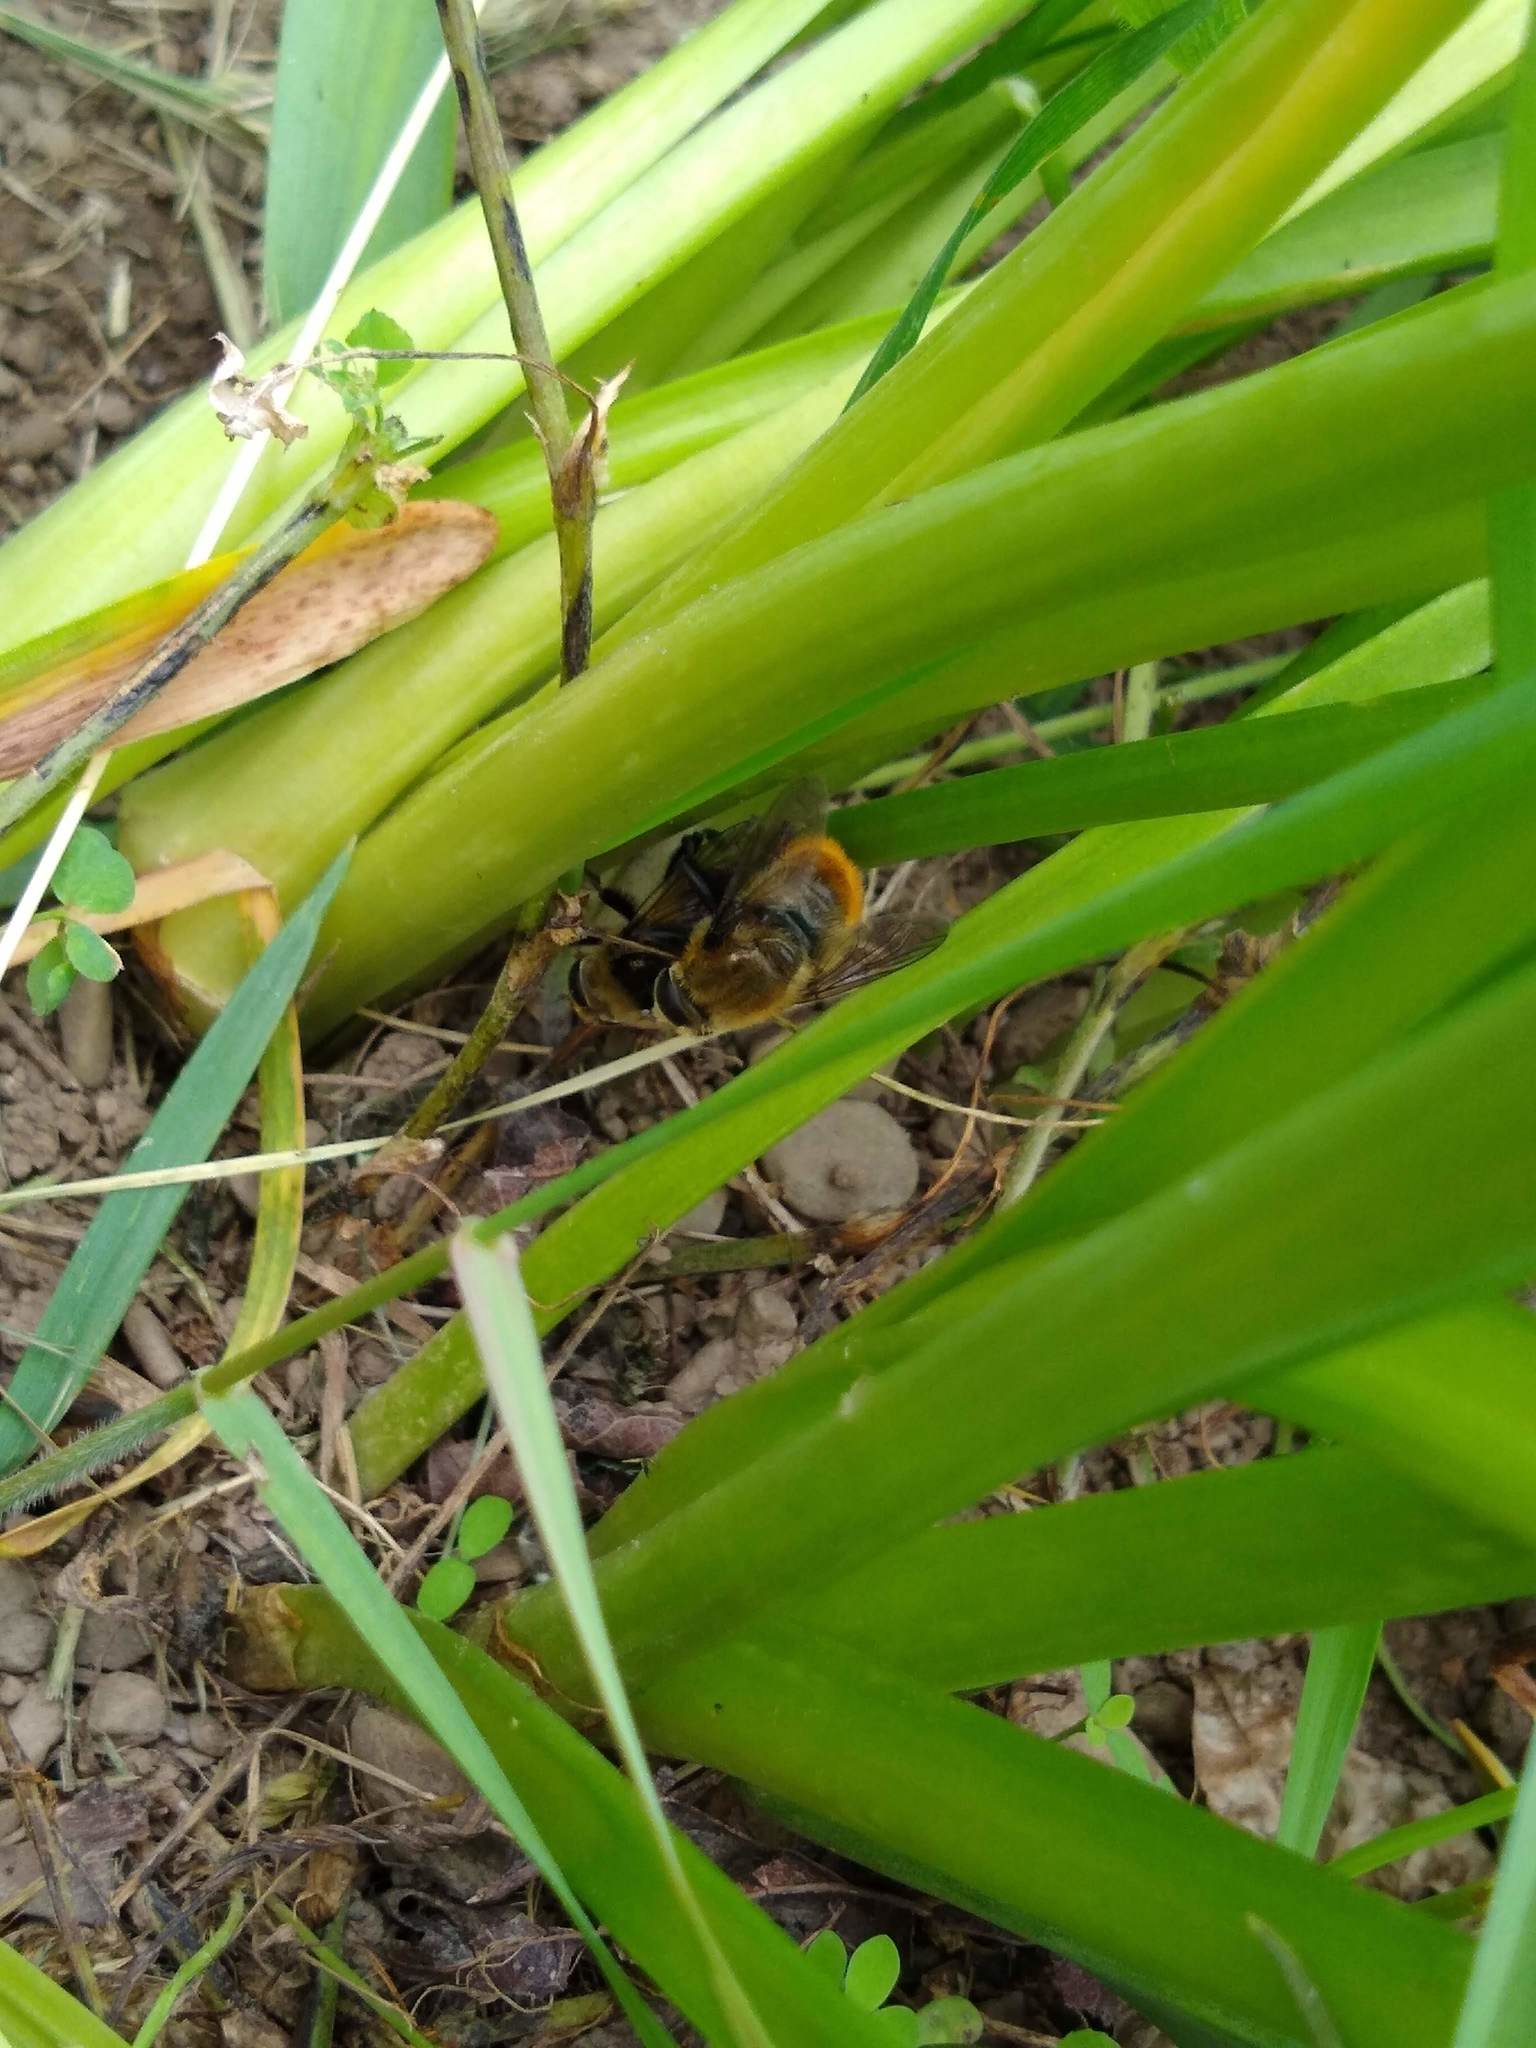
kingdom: Animalia
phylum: Arthropoda
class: Insecta
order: Diptera
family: Syrphidae
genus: Merodon
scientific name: Merodon equestris
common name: Greater bulb-fly
